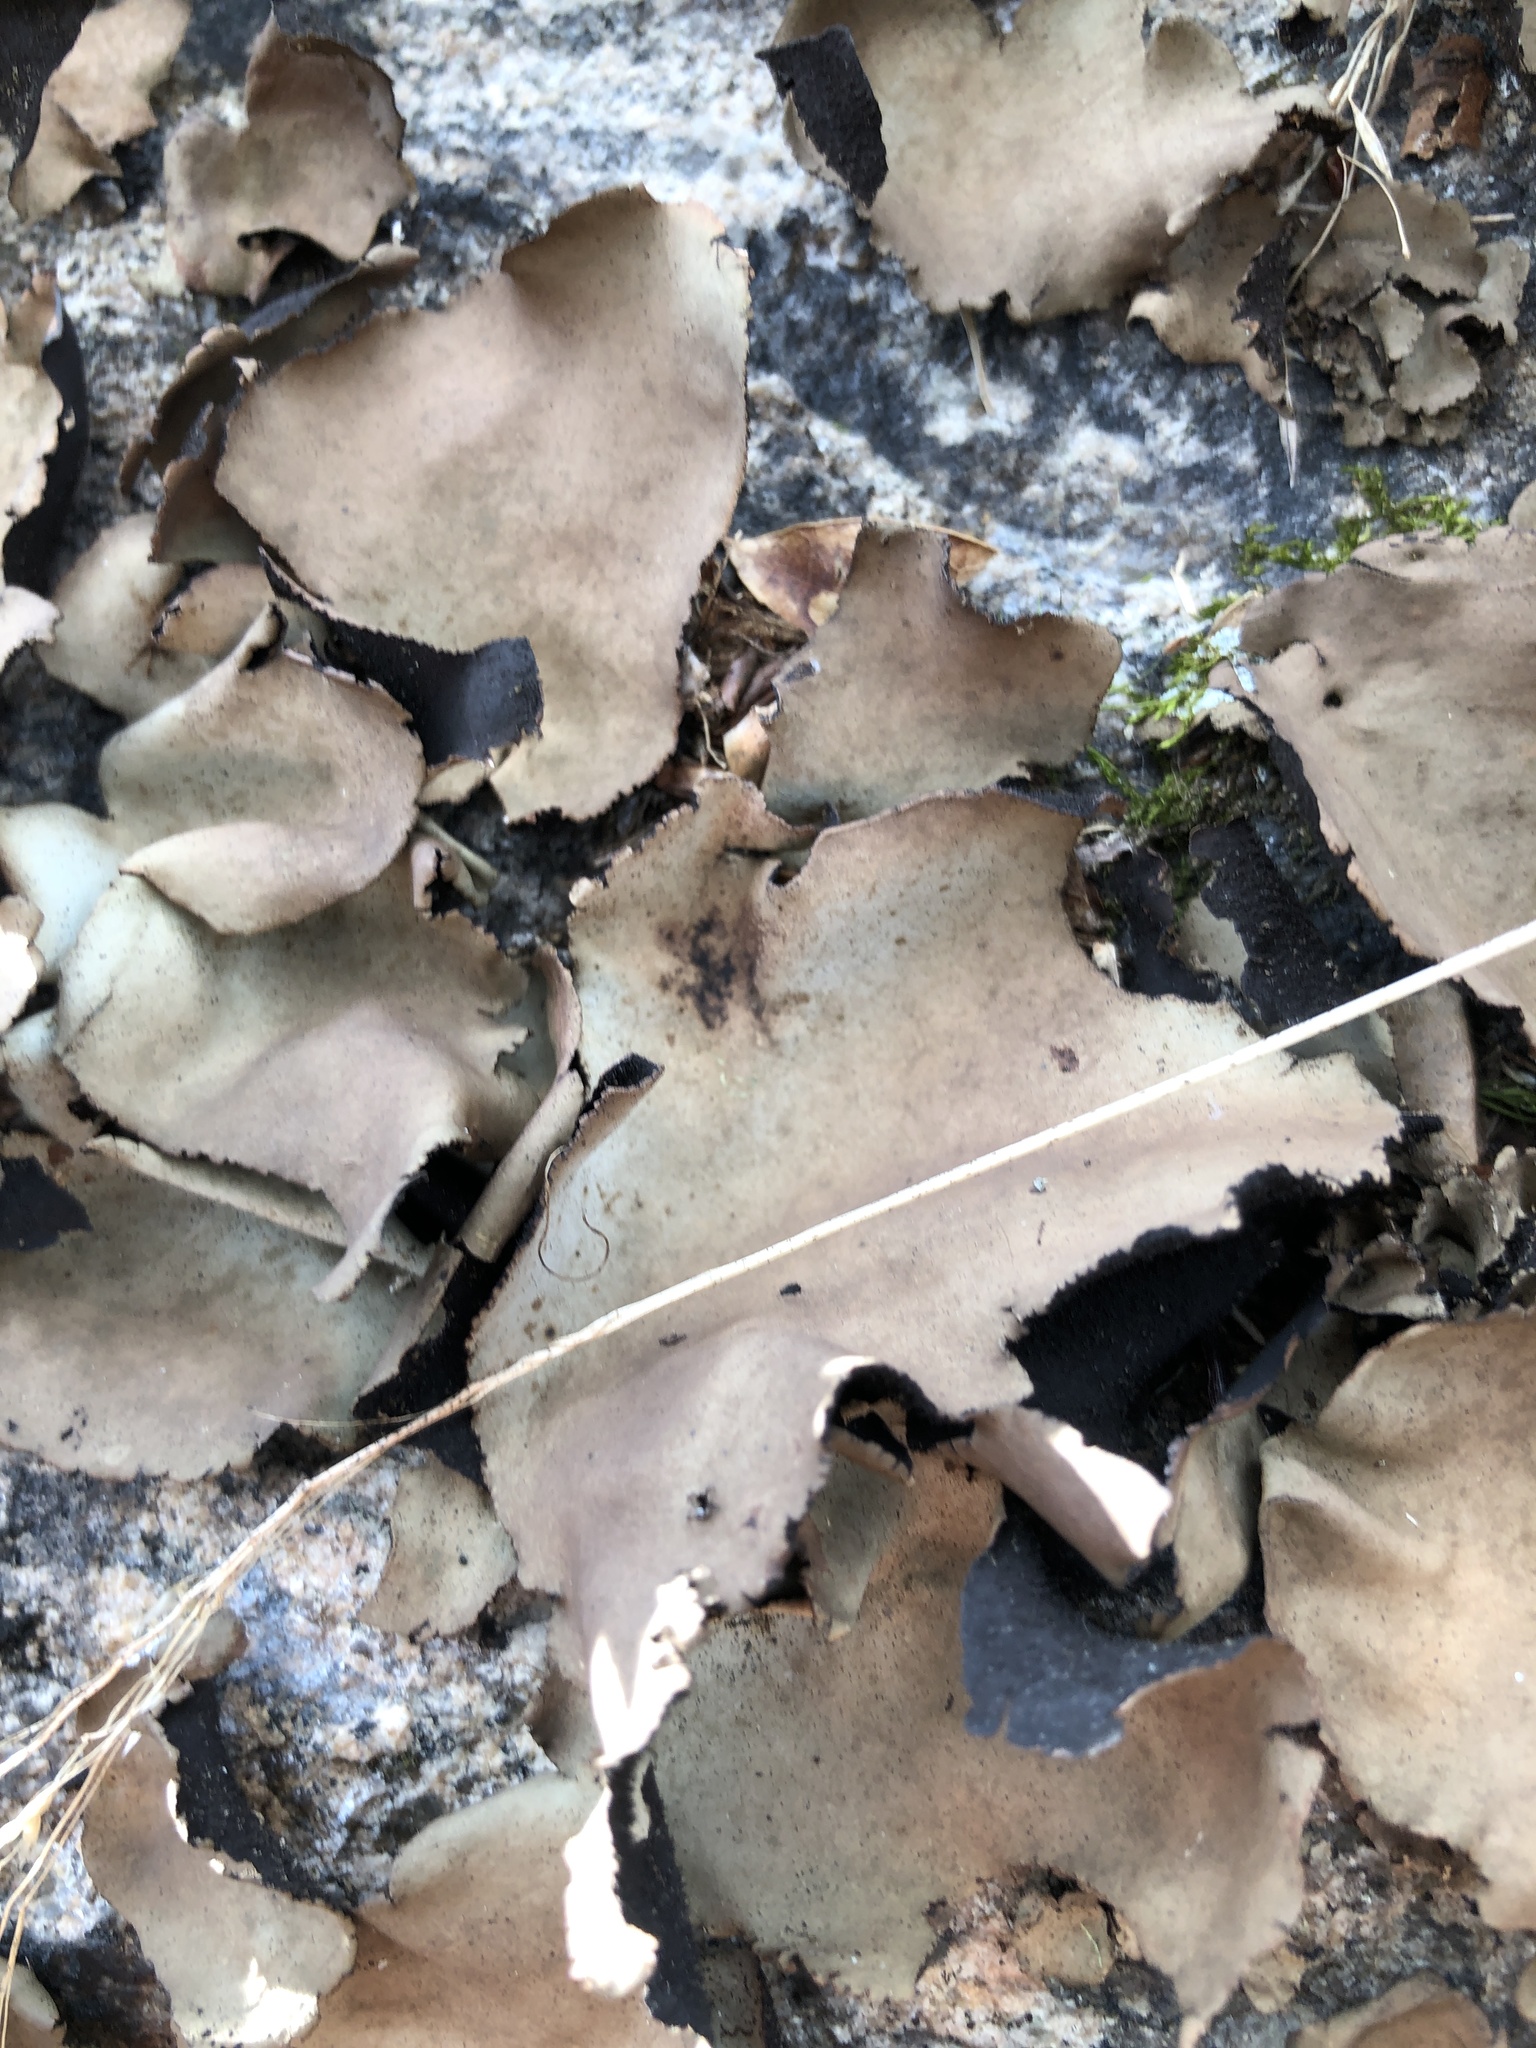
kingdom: Fungi
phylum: Ascomycota
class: Lecanoromycetes
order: Umbilicariales
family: Umbilicariaceae
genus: Umbilicaria
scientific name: Umbilicaria mammulata
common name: Smooth rock tripe
